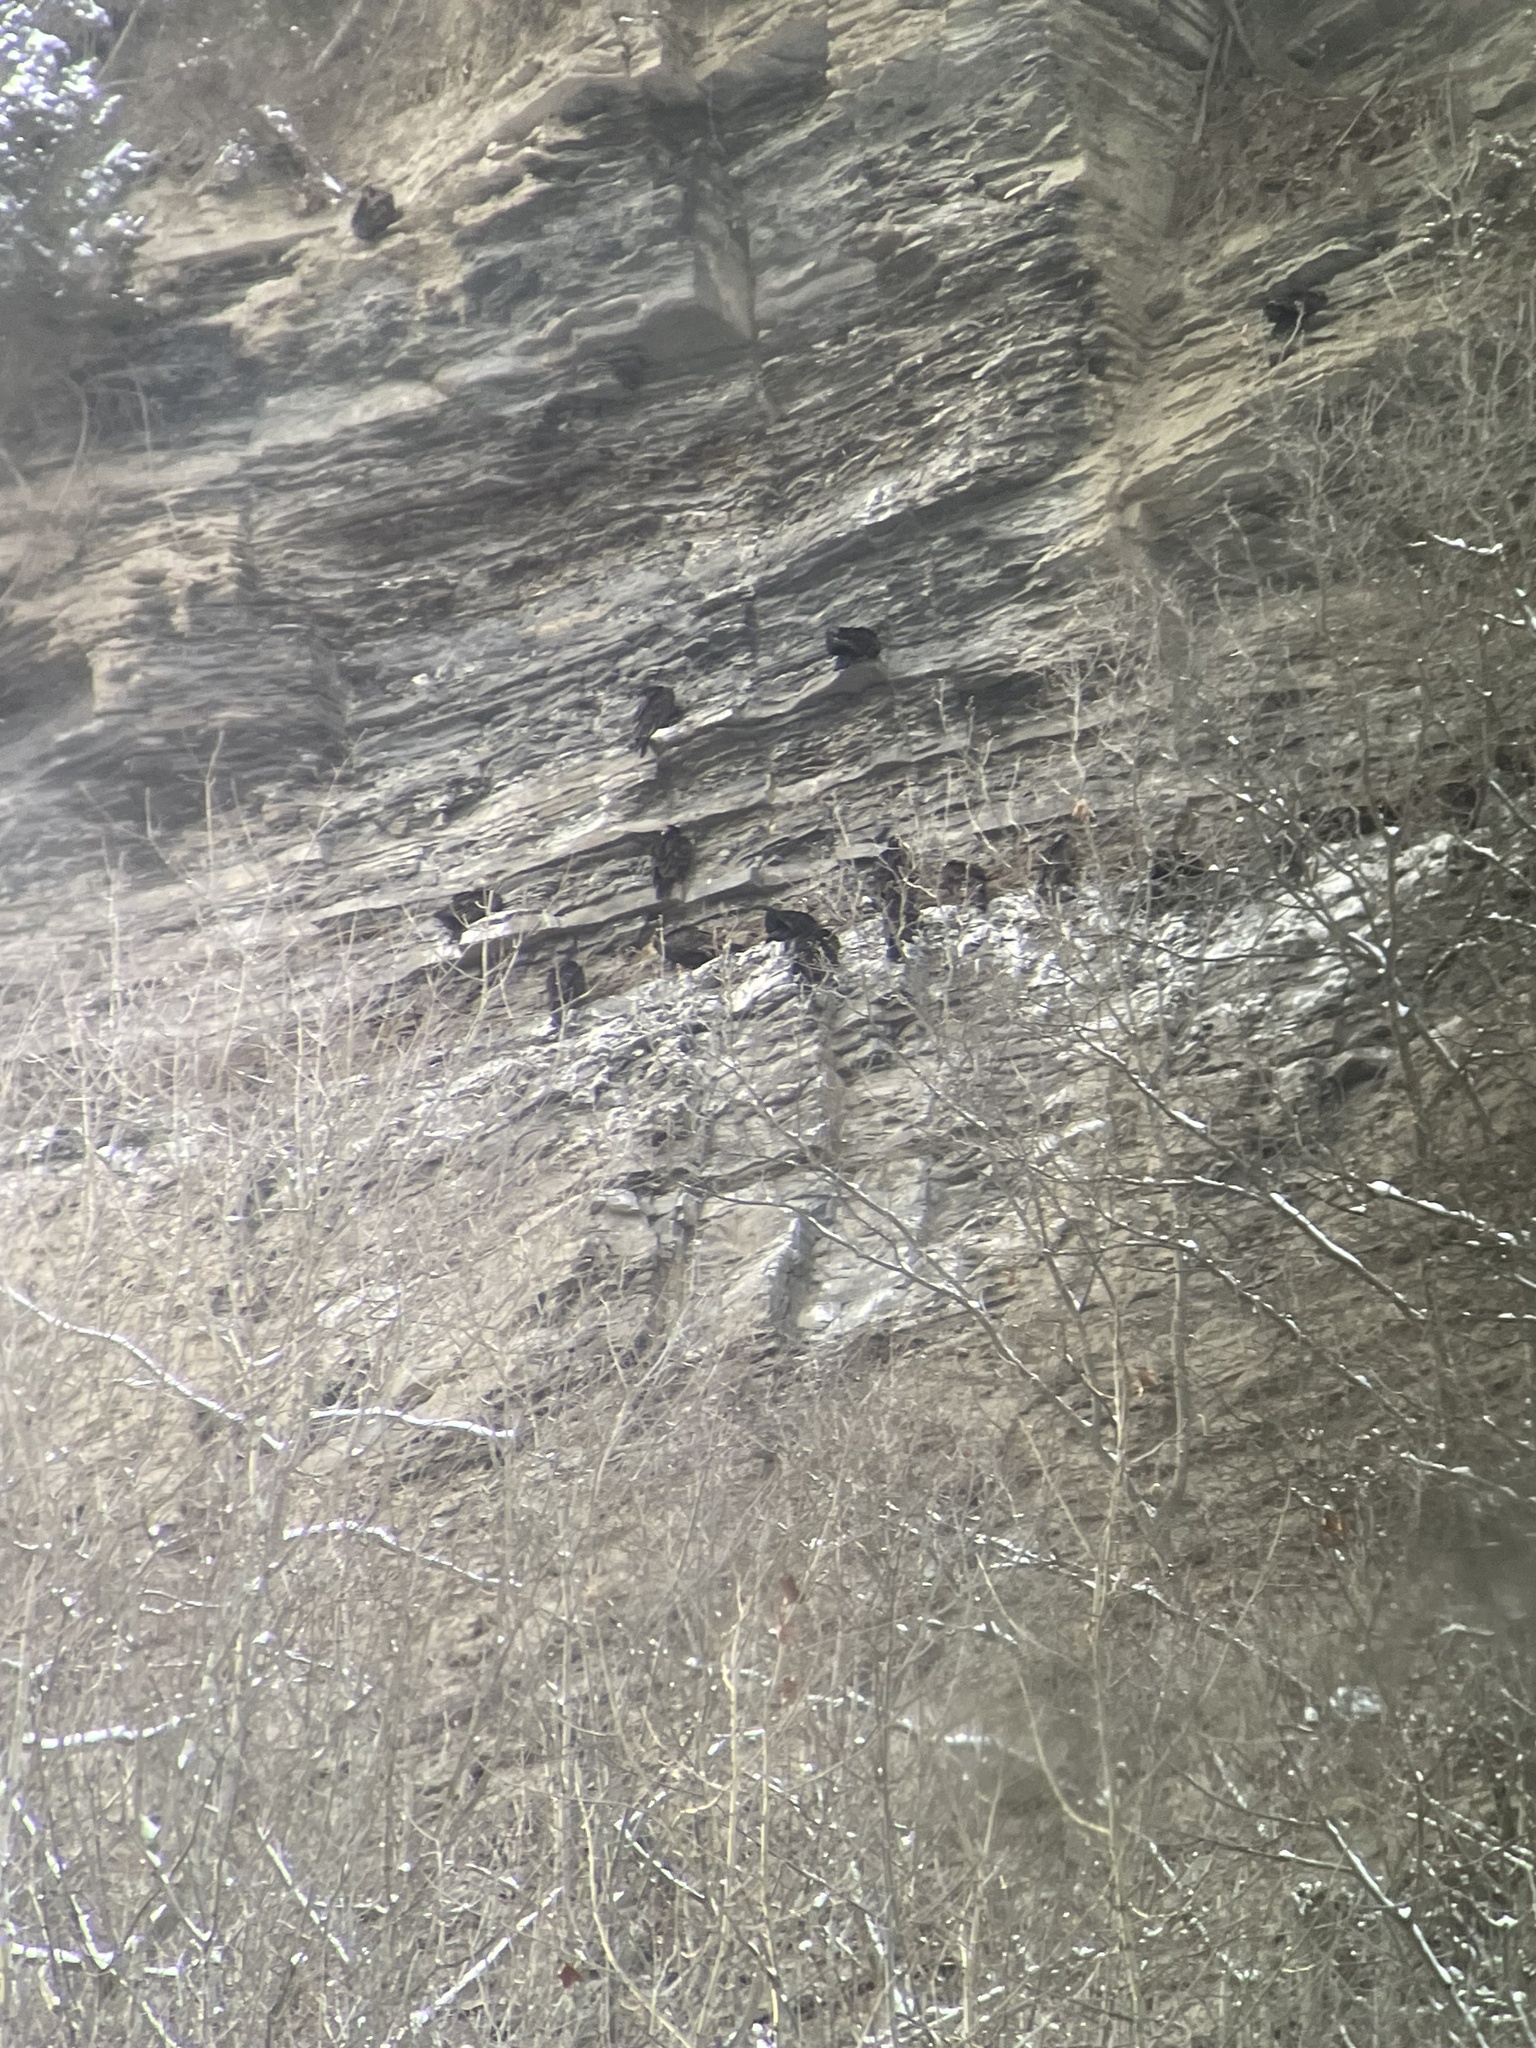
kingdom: Animalia
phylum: Chordata
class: Aves
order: Accipitriformes
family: Cathartidae
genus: Cathartes
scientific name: Cathartes aura
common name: Turkey vulture
